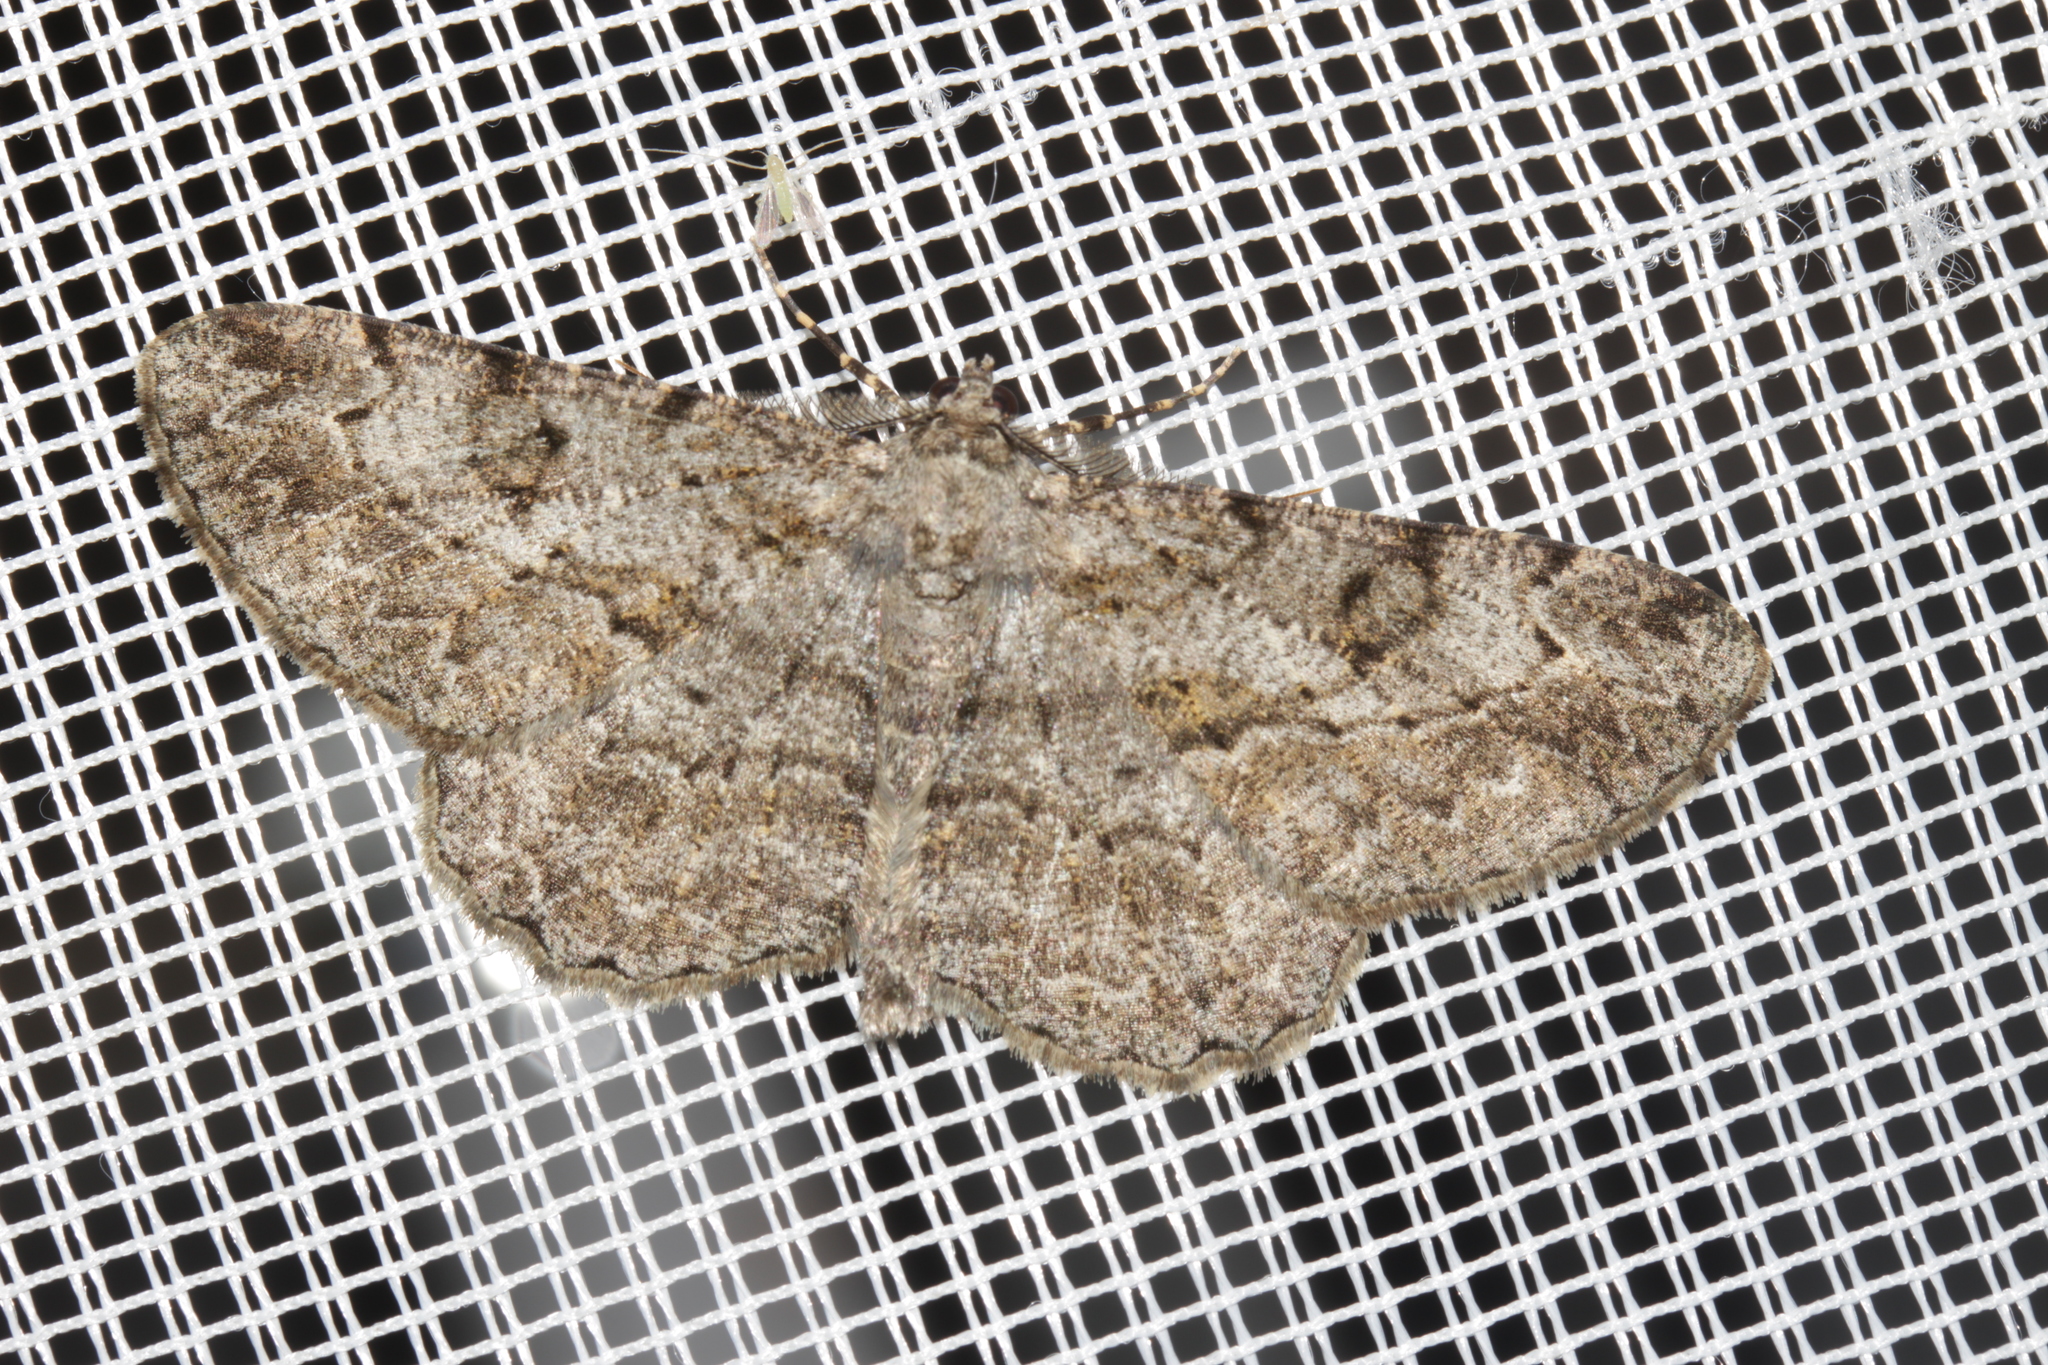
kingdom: Animalia
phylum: Arthropoda
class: Insecta
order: Lepidoptera
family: Geometridae
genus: Peribatodes
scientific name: Peribatodes rhomboidaria
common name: Willow beauty
